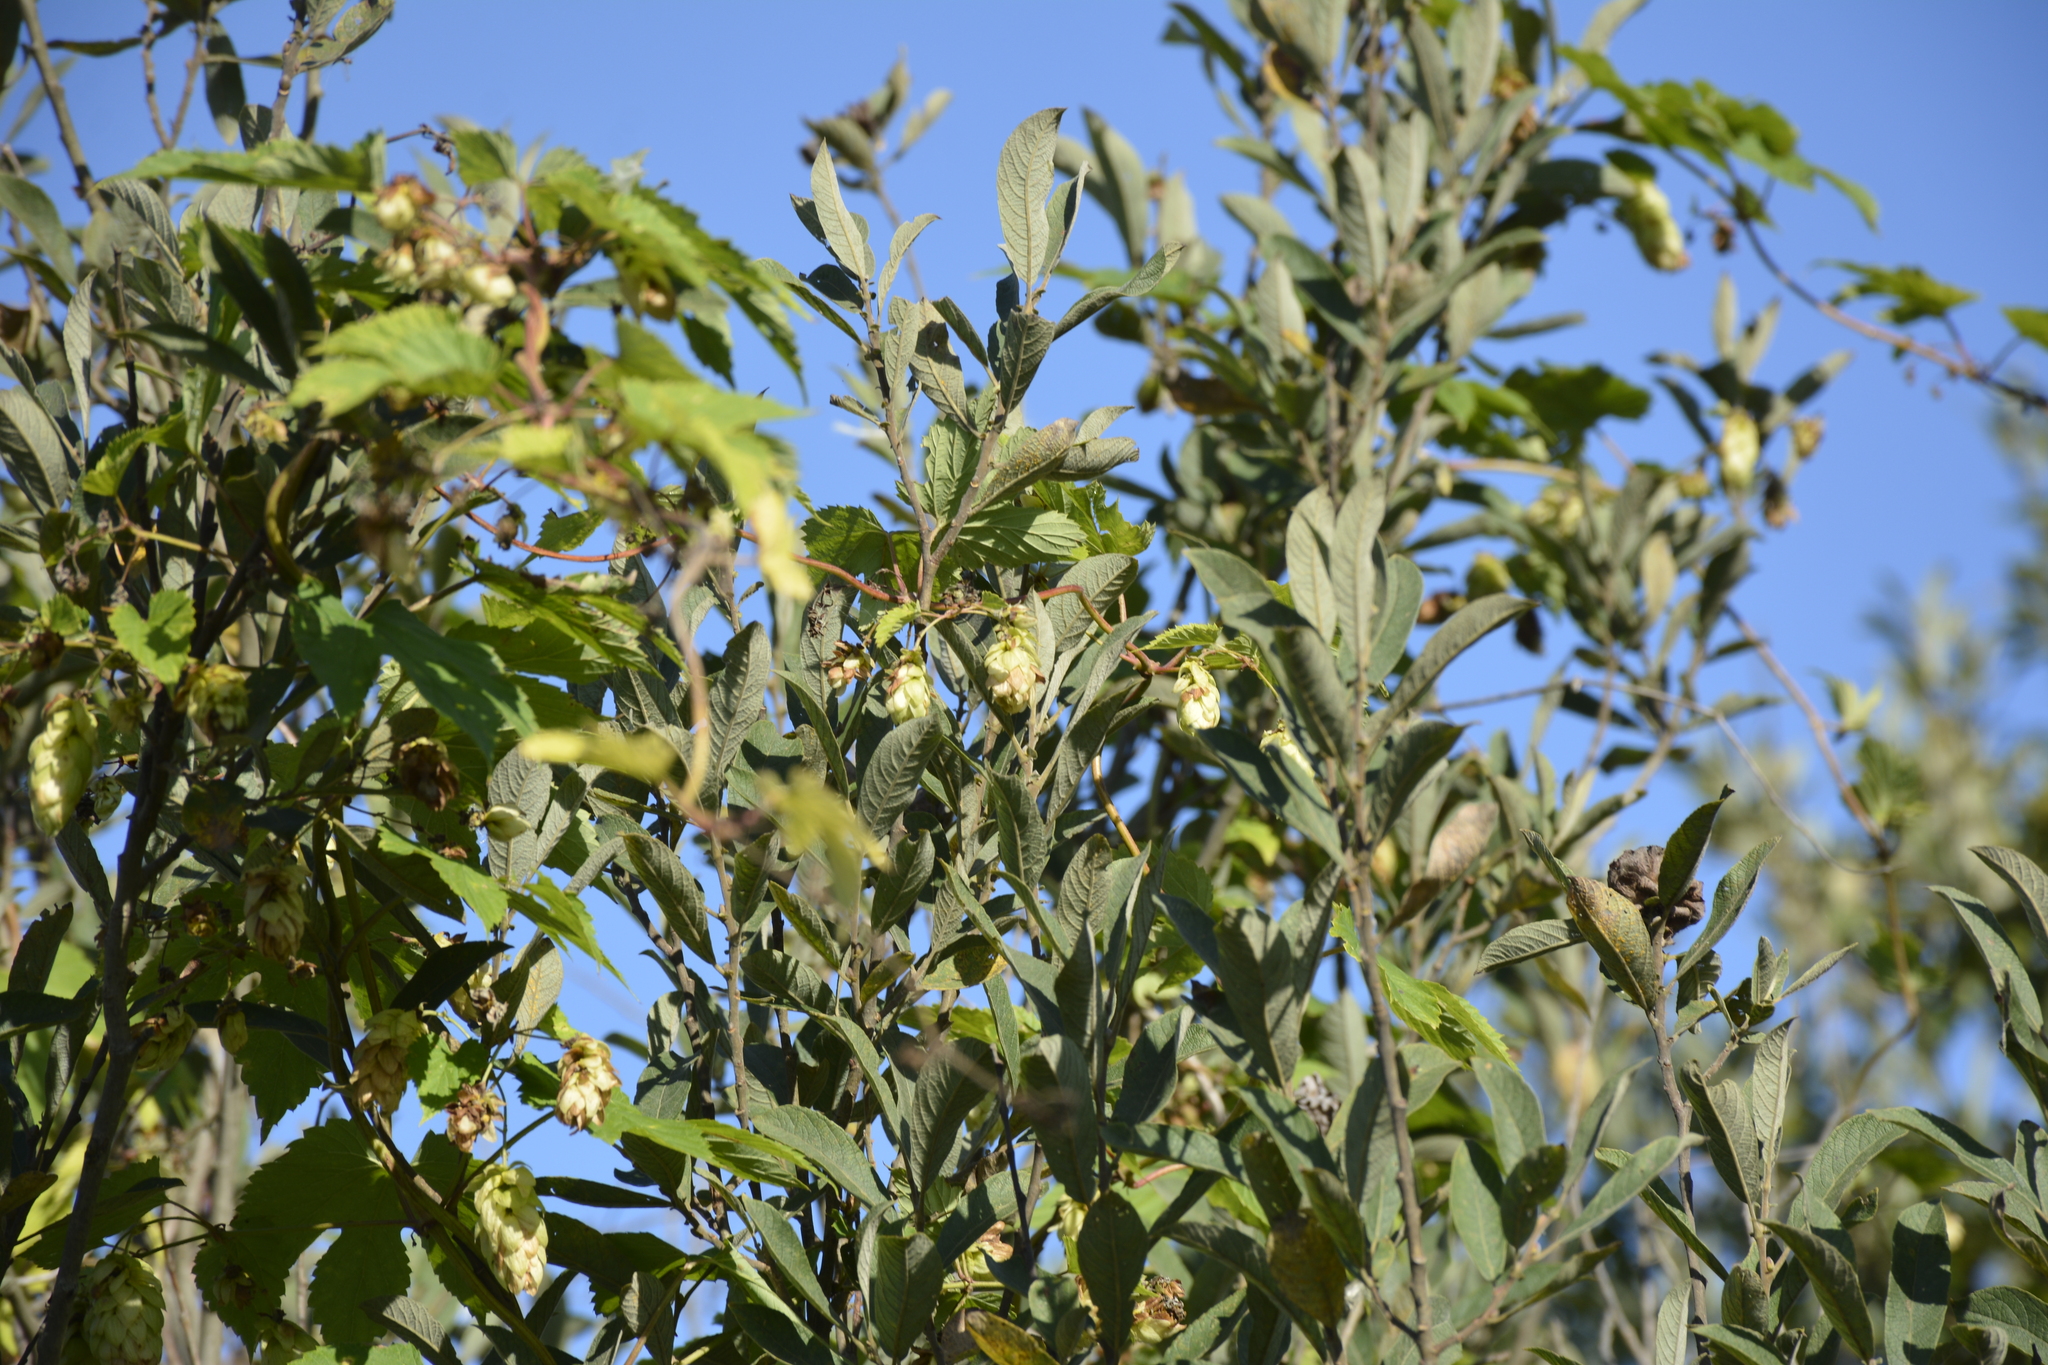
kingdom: Plantae
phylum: Tracheophyta
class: Magnoliopsida
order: Rosales
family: Cannabaceae
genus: Humulus
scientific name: Humulus lupulus
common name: Hop
